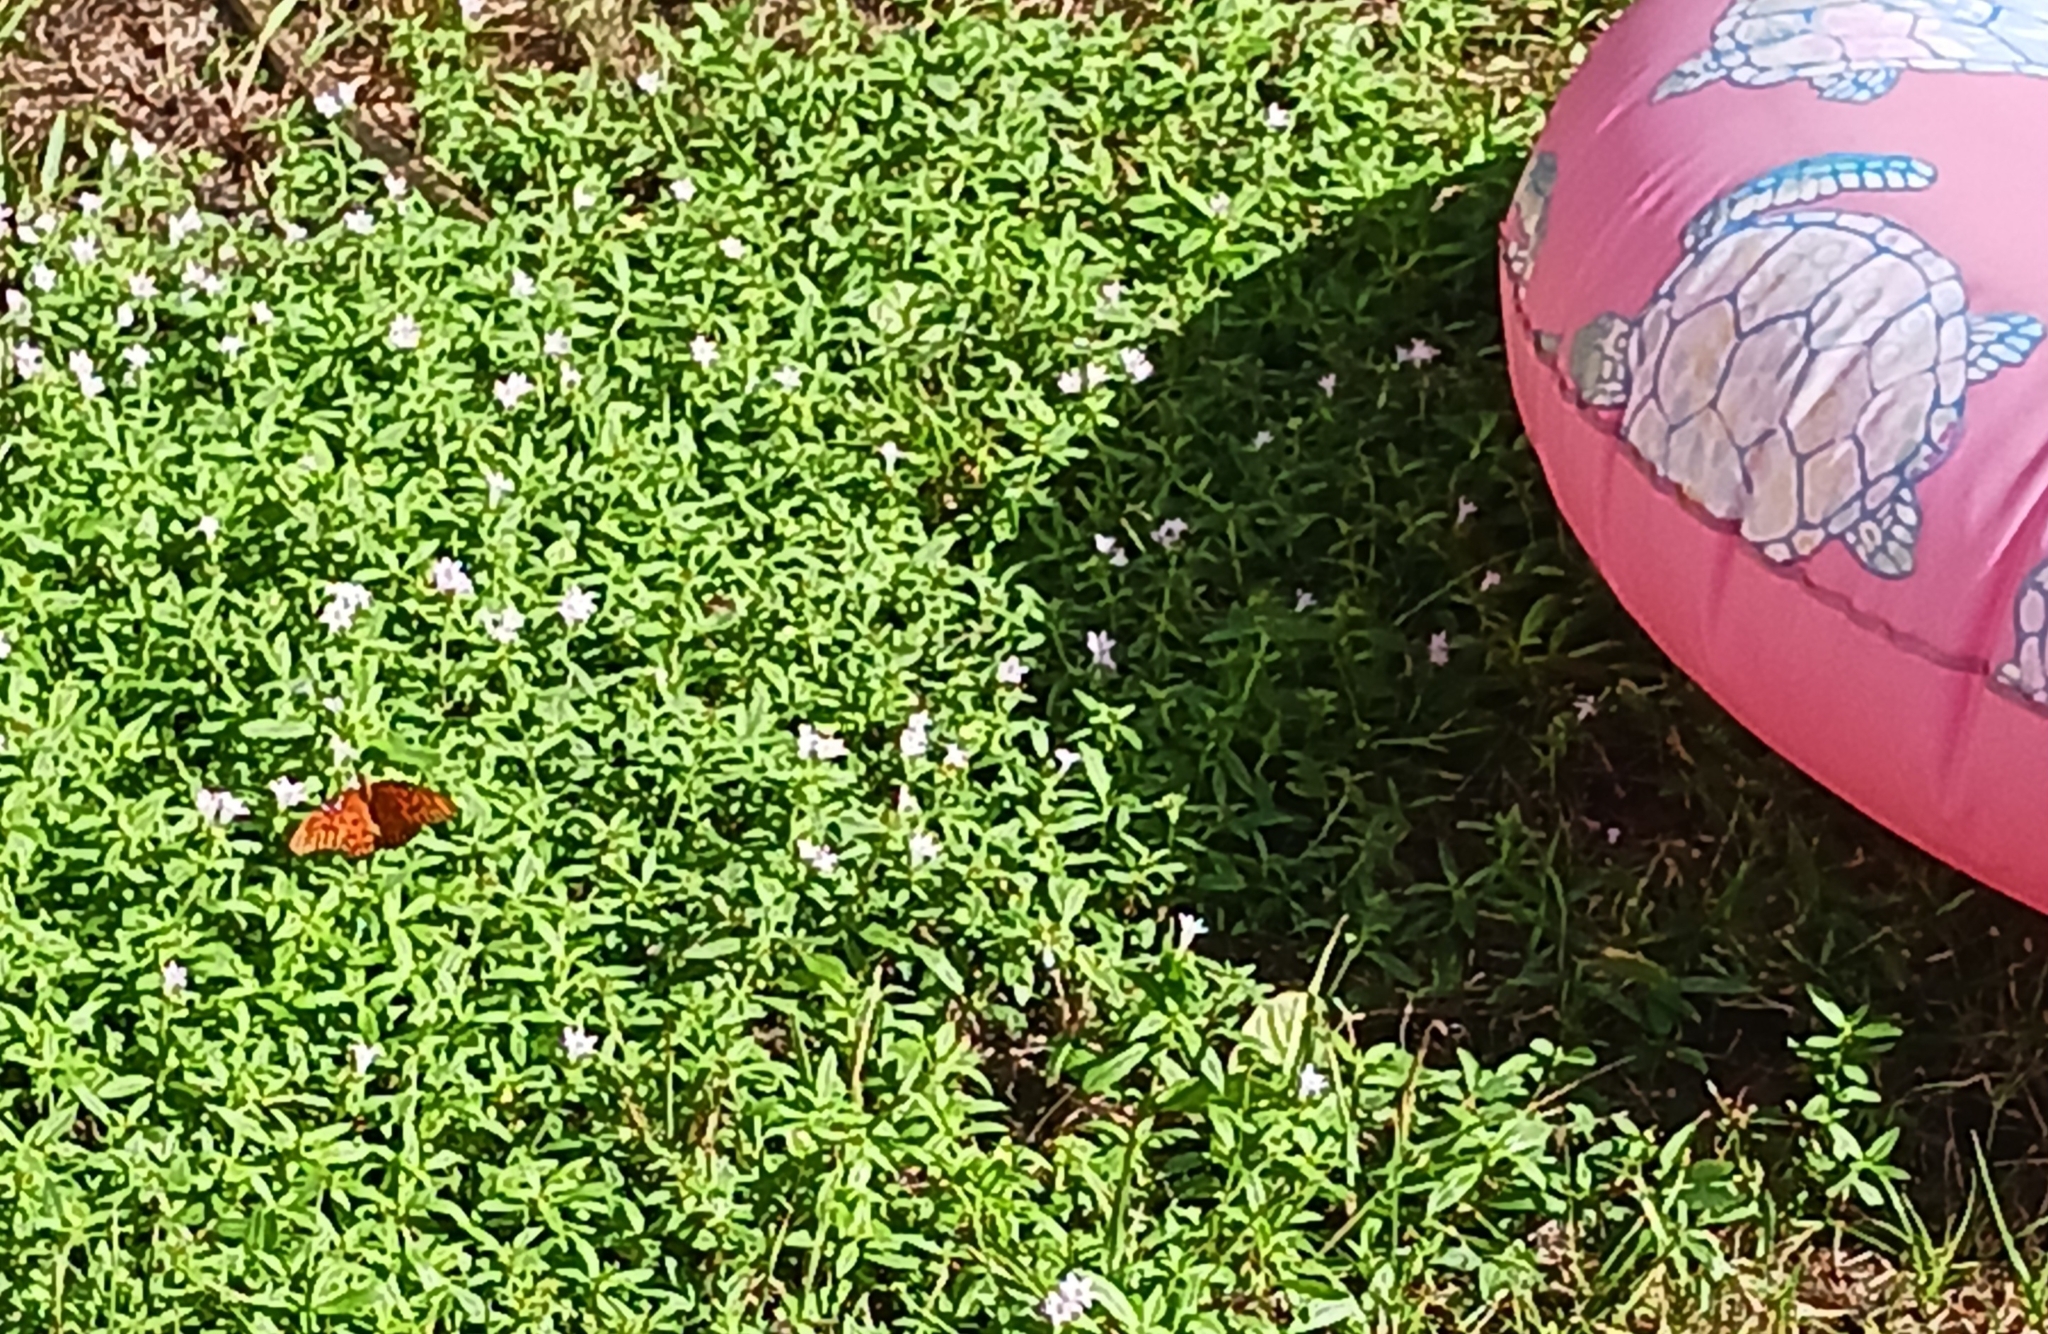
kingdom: Animalia
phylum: Arthropoda
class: Insecta
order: Lepidoptera
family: Nymphalidae
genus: Dione
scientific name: Dione vanillae
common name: Gulf fritillary
